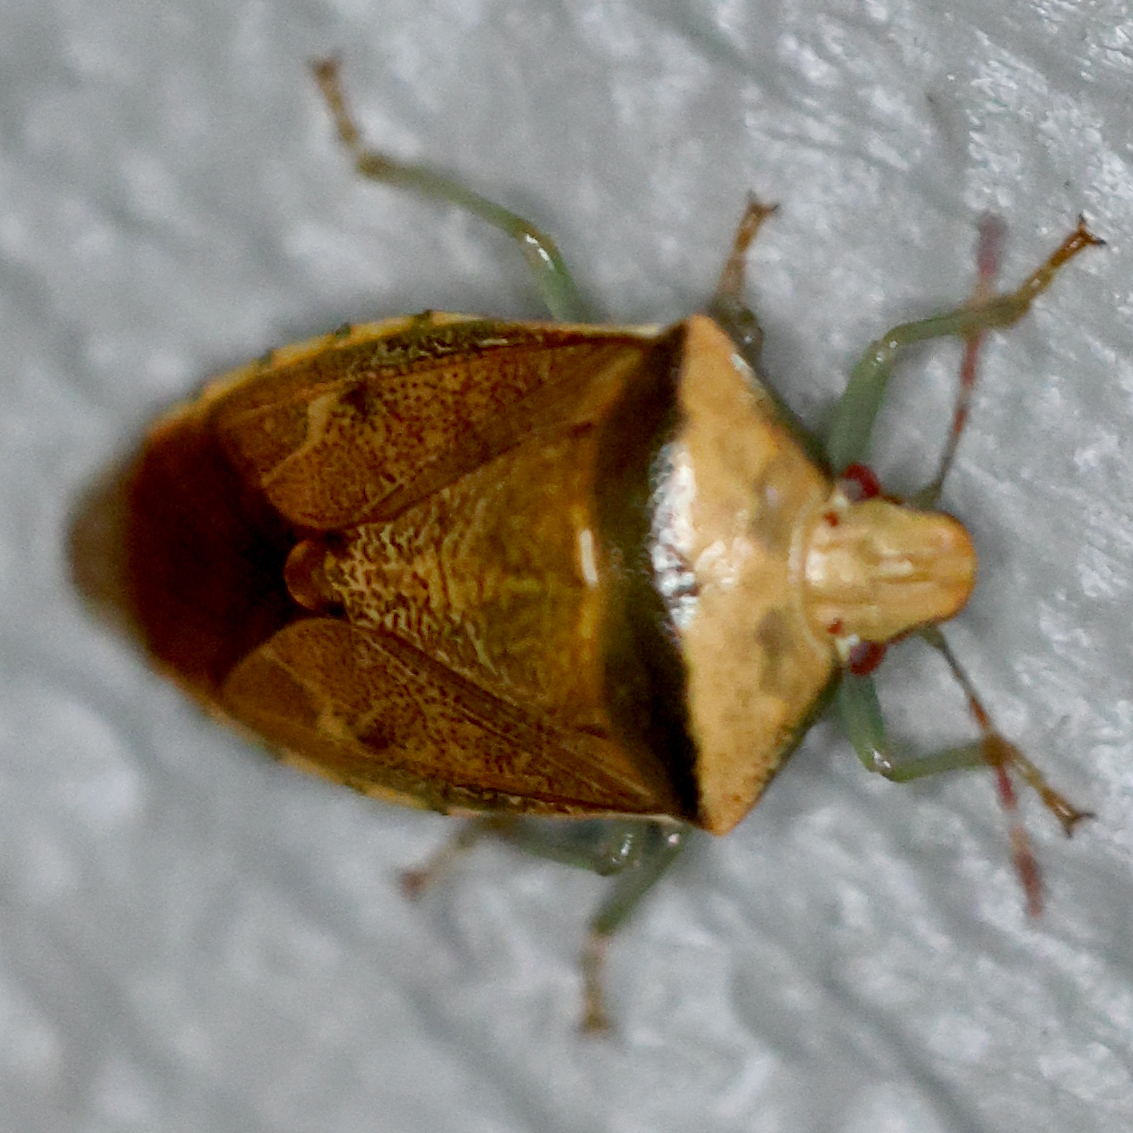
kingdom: Animalia
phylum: Arthropoda
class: Insecta
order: Hemiptera
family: Pentatomidae
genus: Banasa
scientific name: Banasa calva
